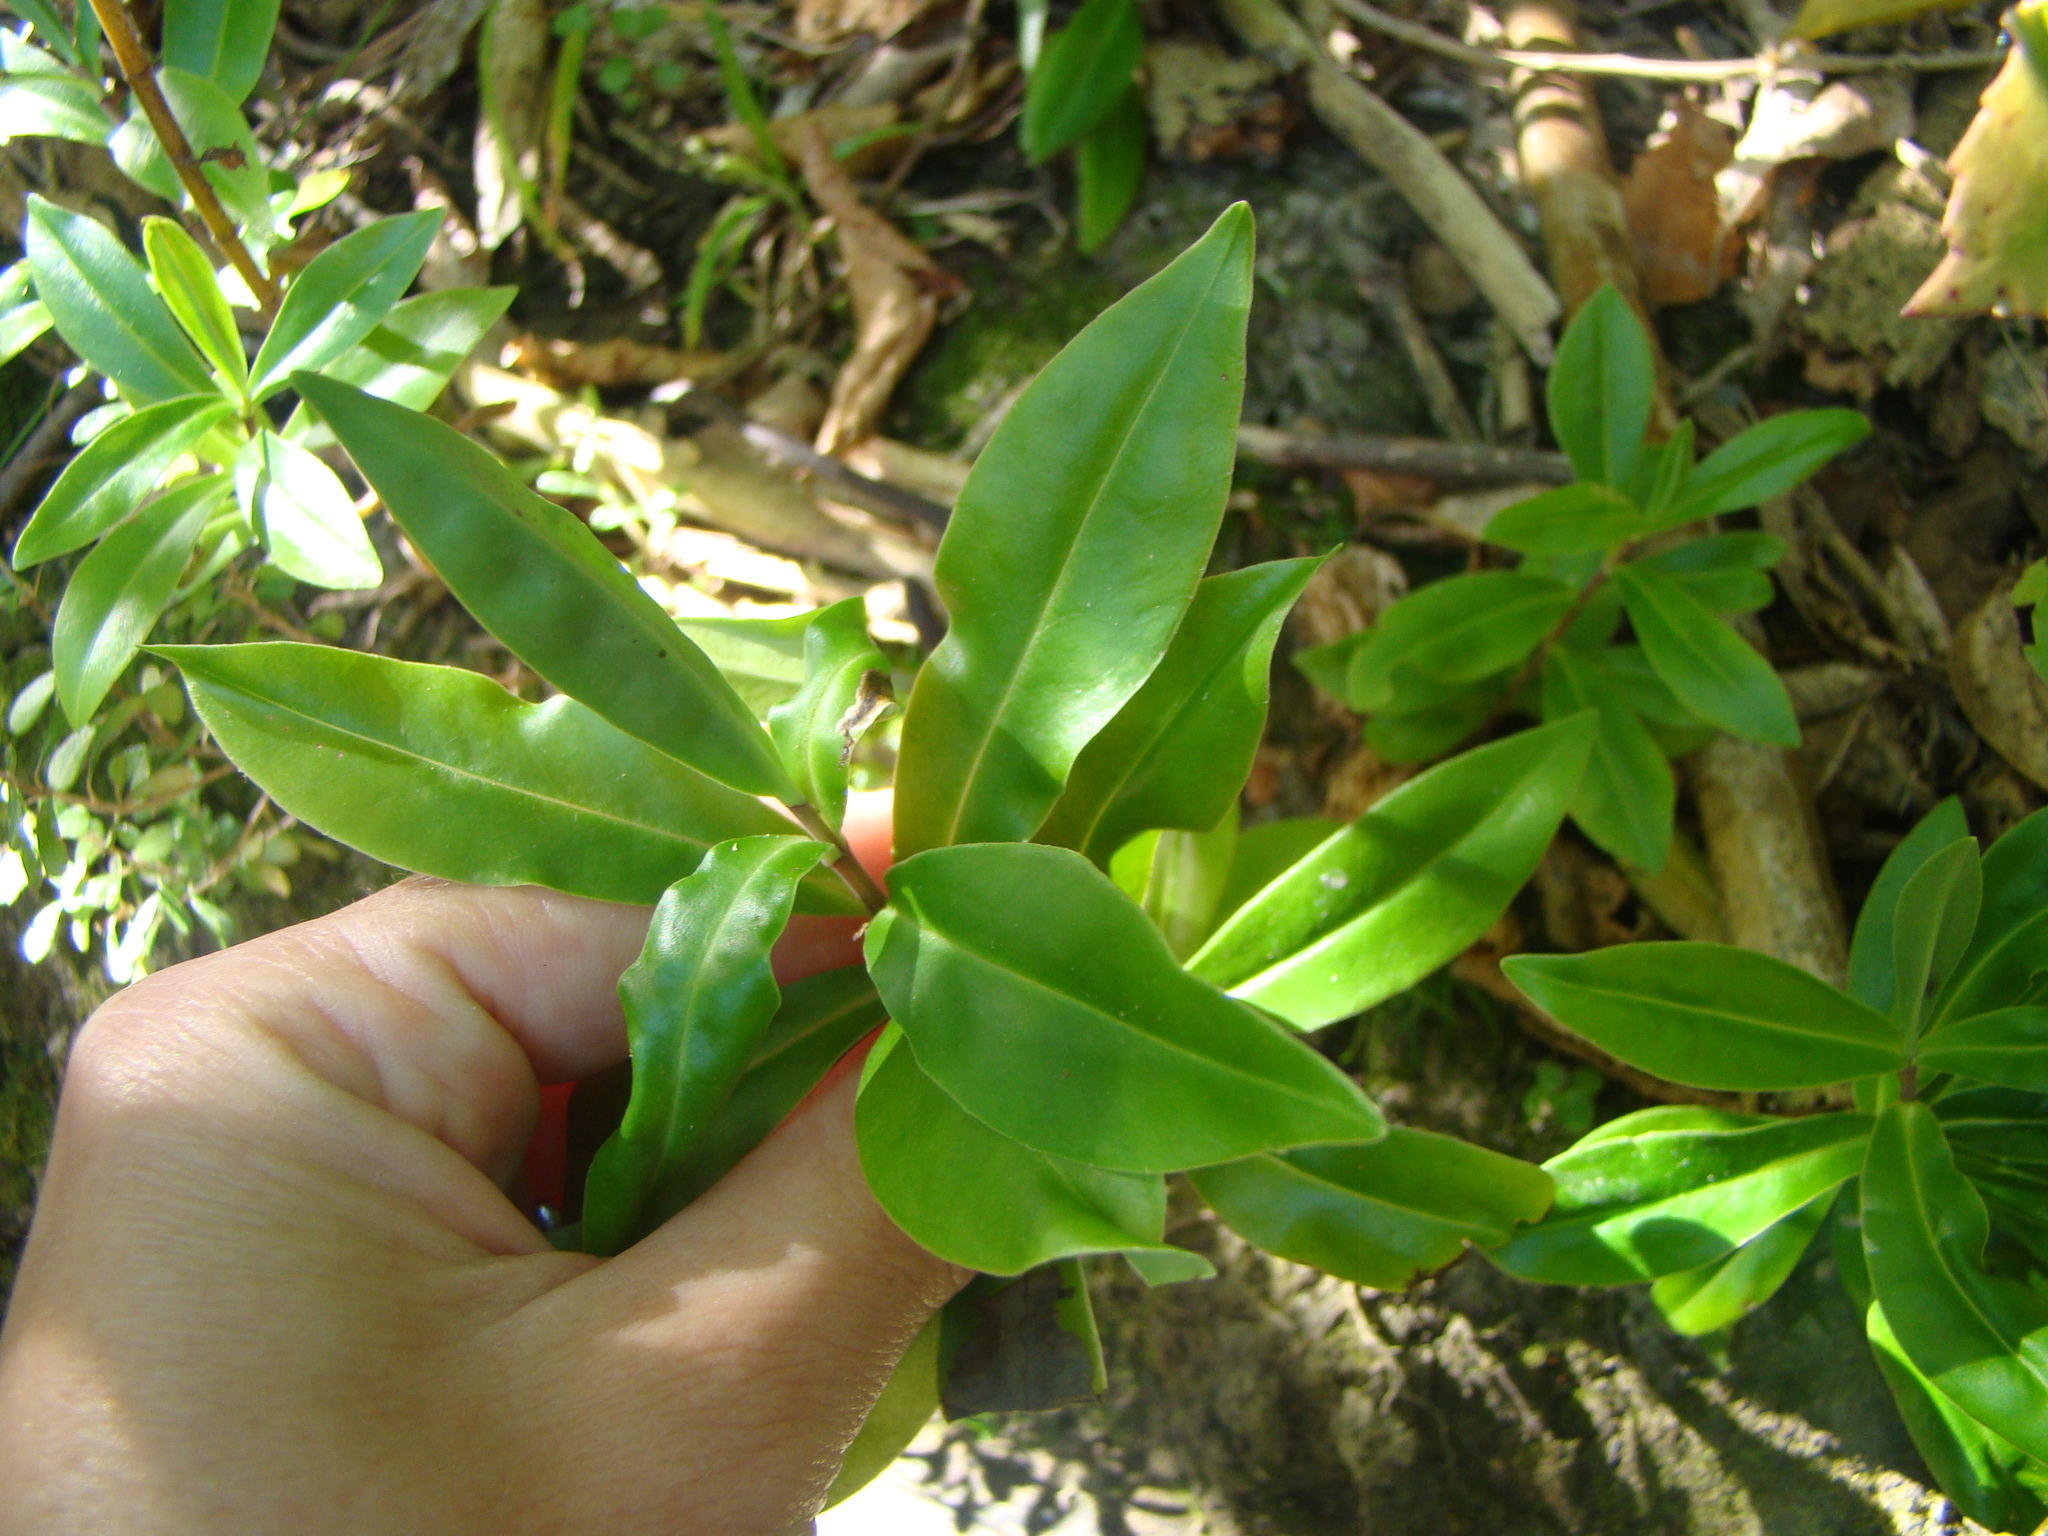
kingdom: Plantae
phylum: Tracheophyta
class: Magnoliopsida
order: Lamiales
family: Plantaginaceae
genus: Veronica
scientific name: Veronica stricta
